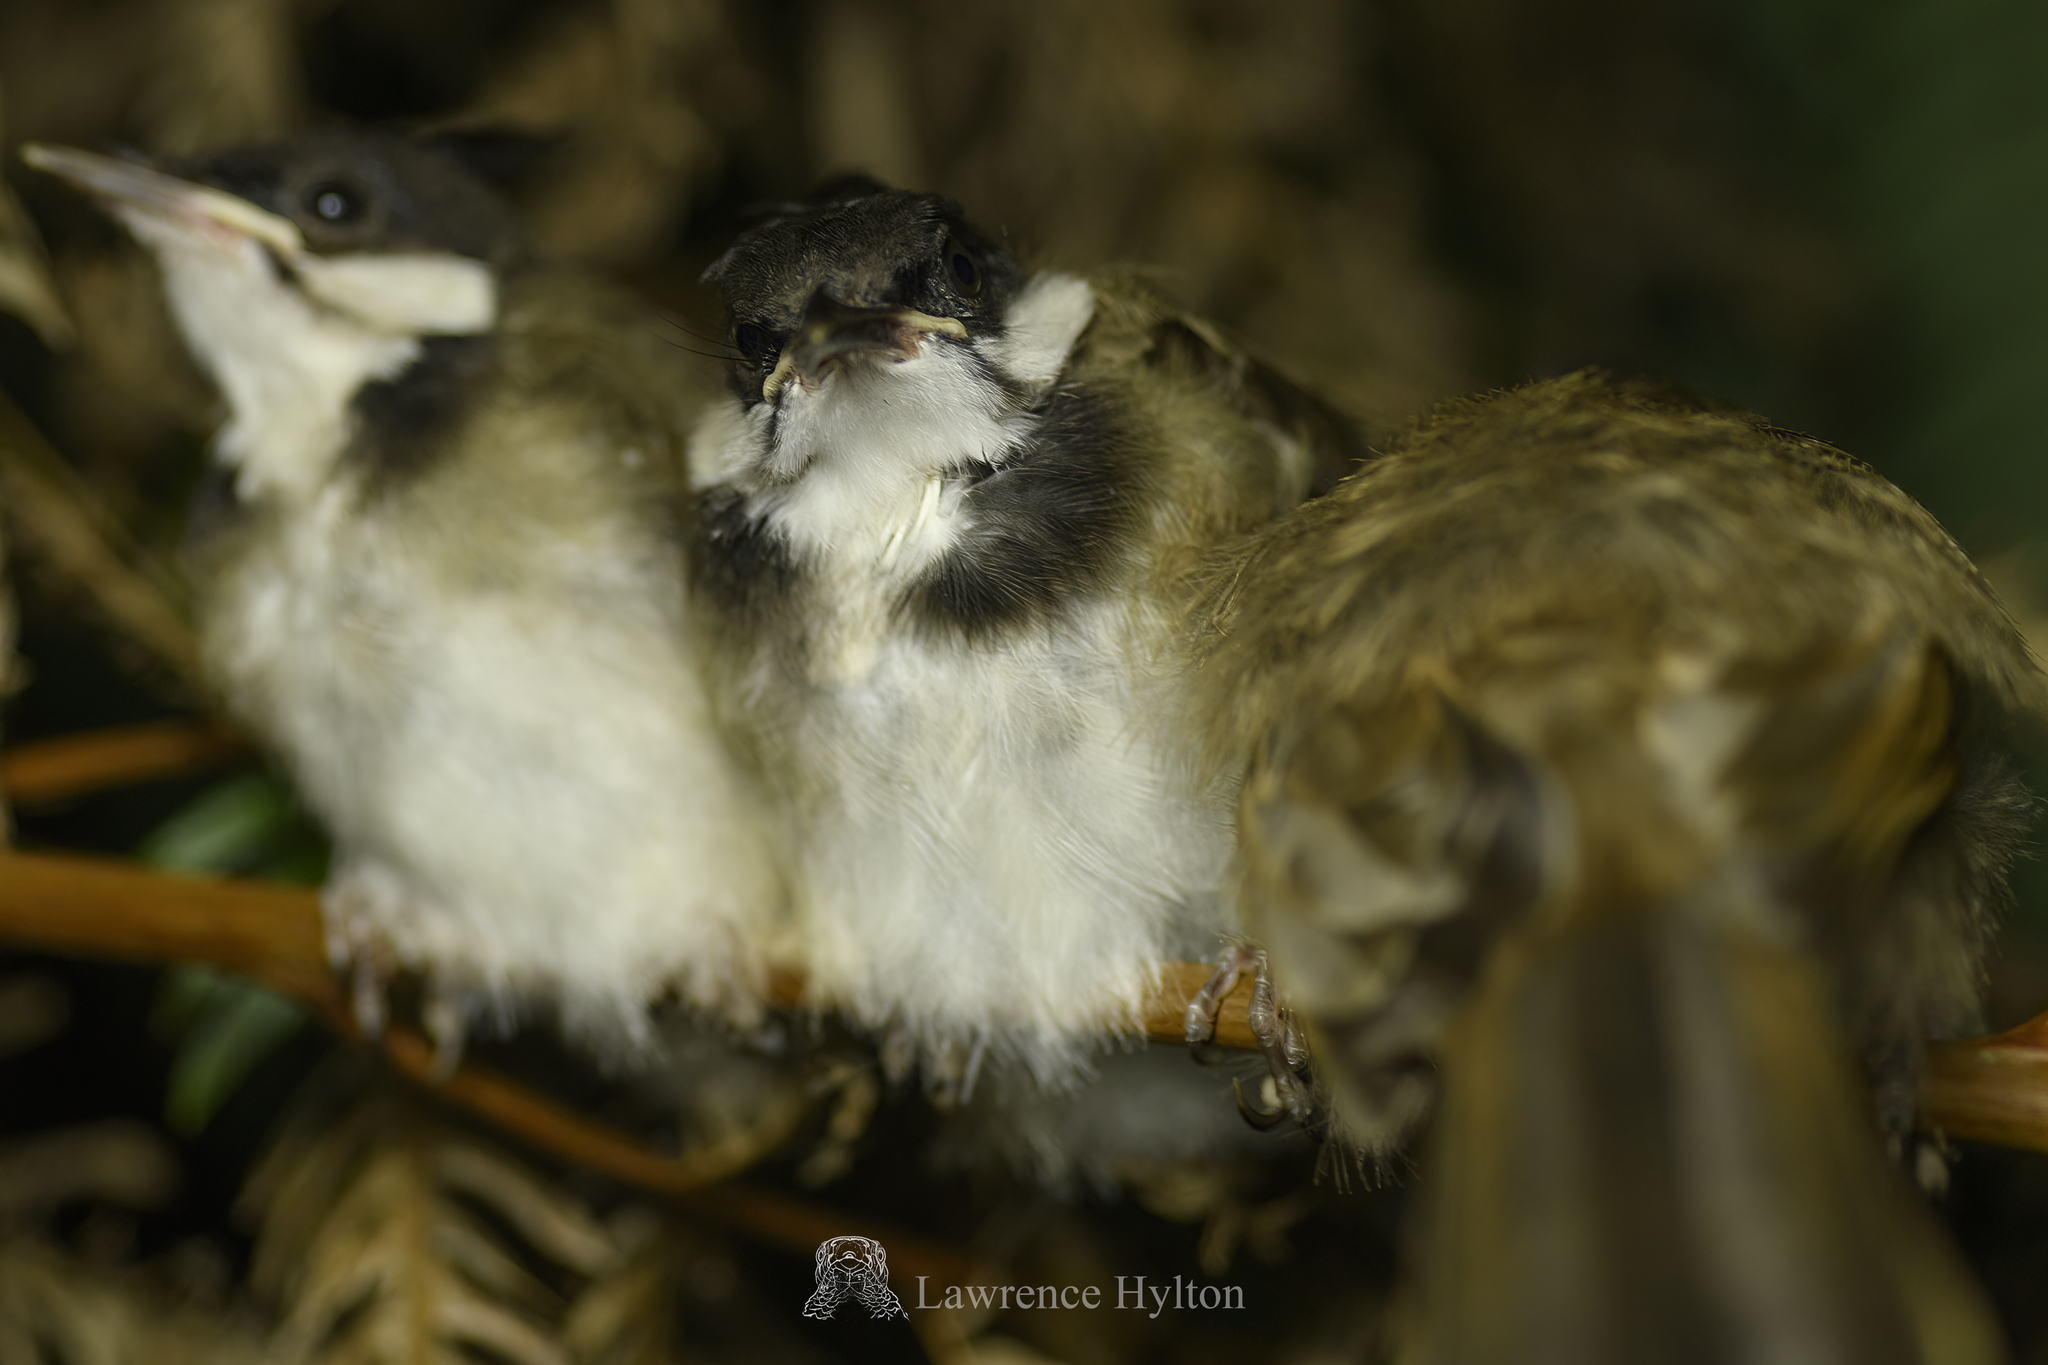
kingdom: Animalia
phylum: Chordata
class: Aves
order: Passeriformes
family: Pycnonotidae
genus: Pycnonotus
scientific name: Pycnonotus jocosus
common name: Red-whiskered bulbul
